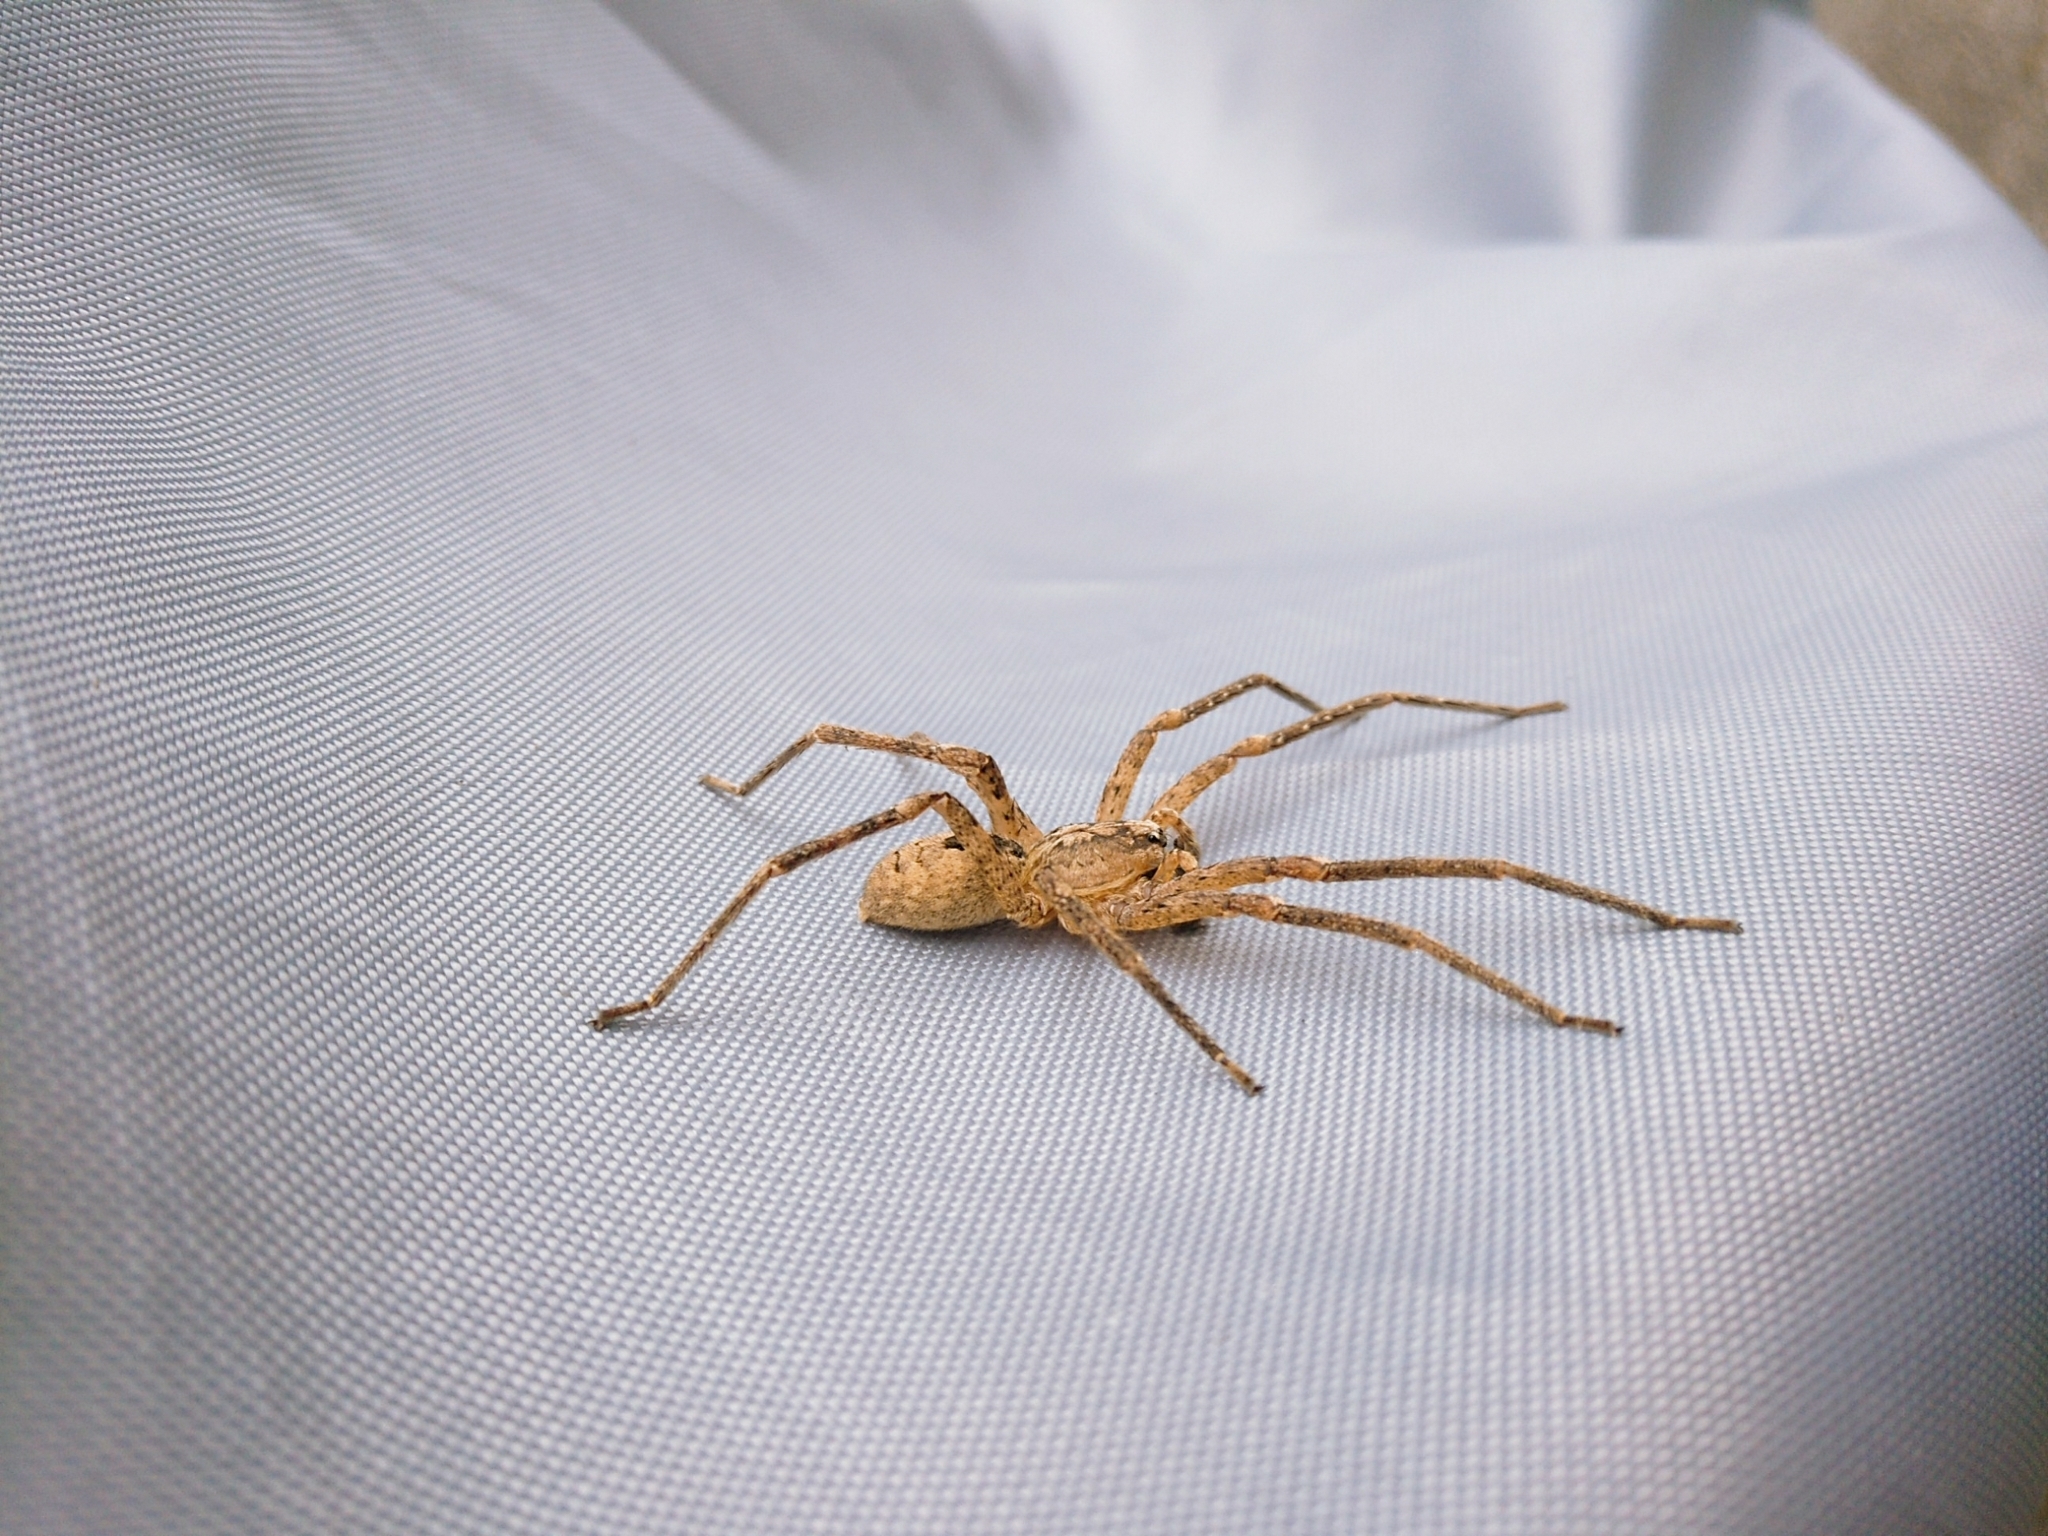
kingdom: Animalia
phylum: Arthropoda
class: Arachnida
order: Araneae
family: Zoropsidae
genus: Zoropsis
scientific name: Zoropsis spinimana
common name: Zoropsid spider
